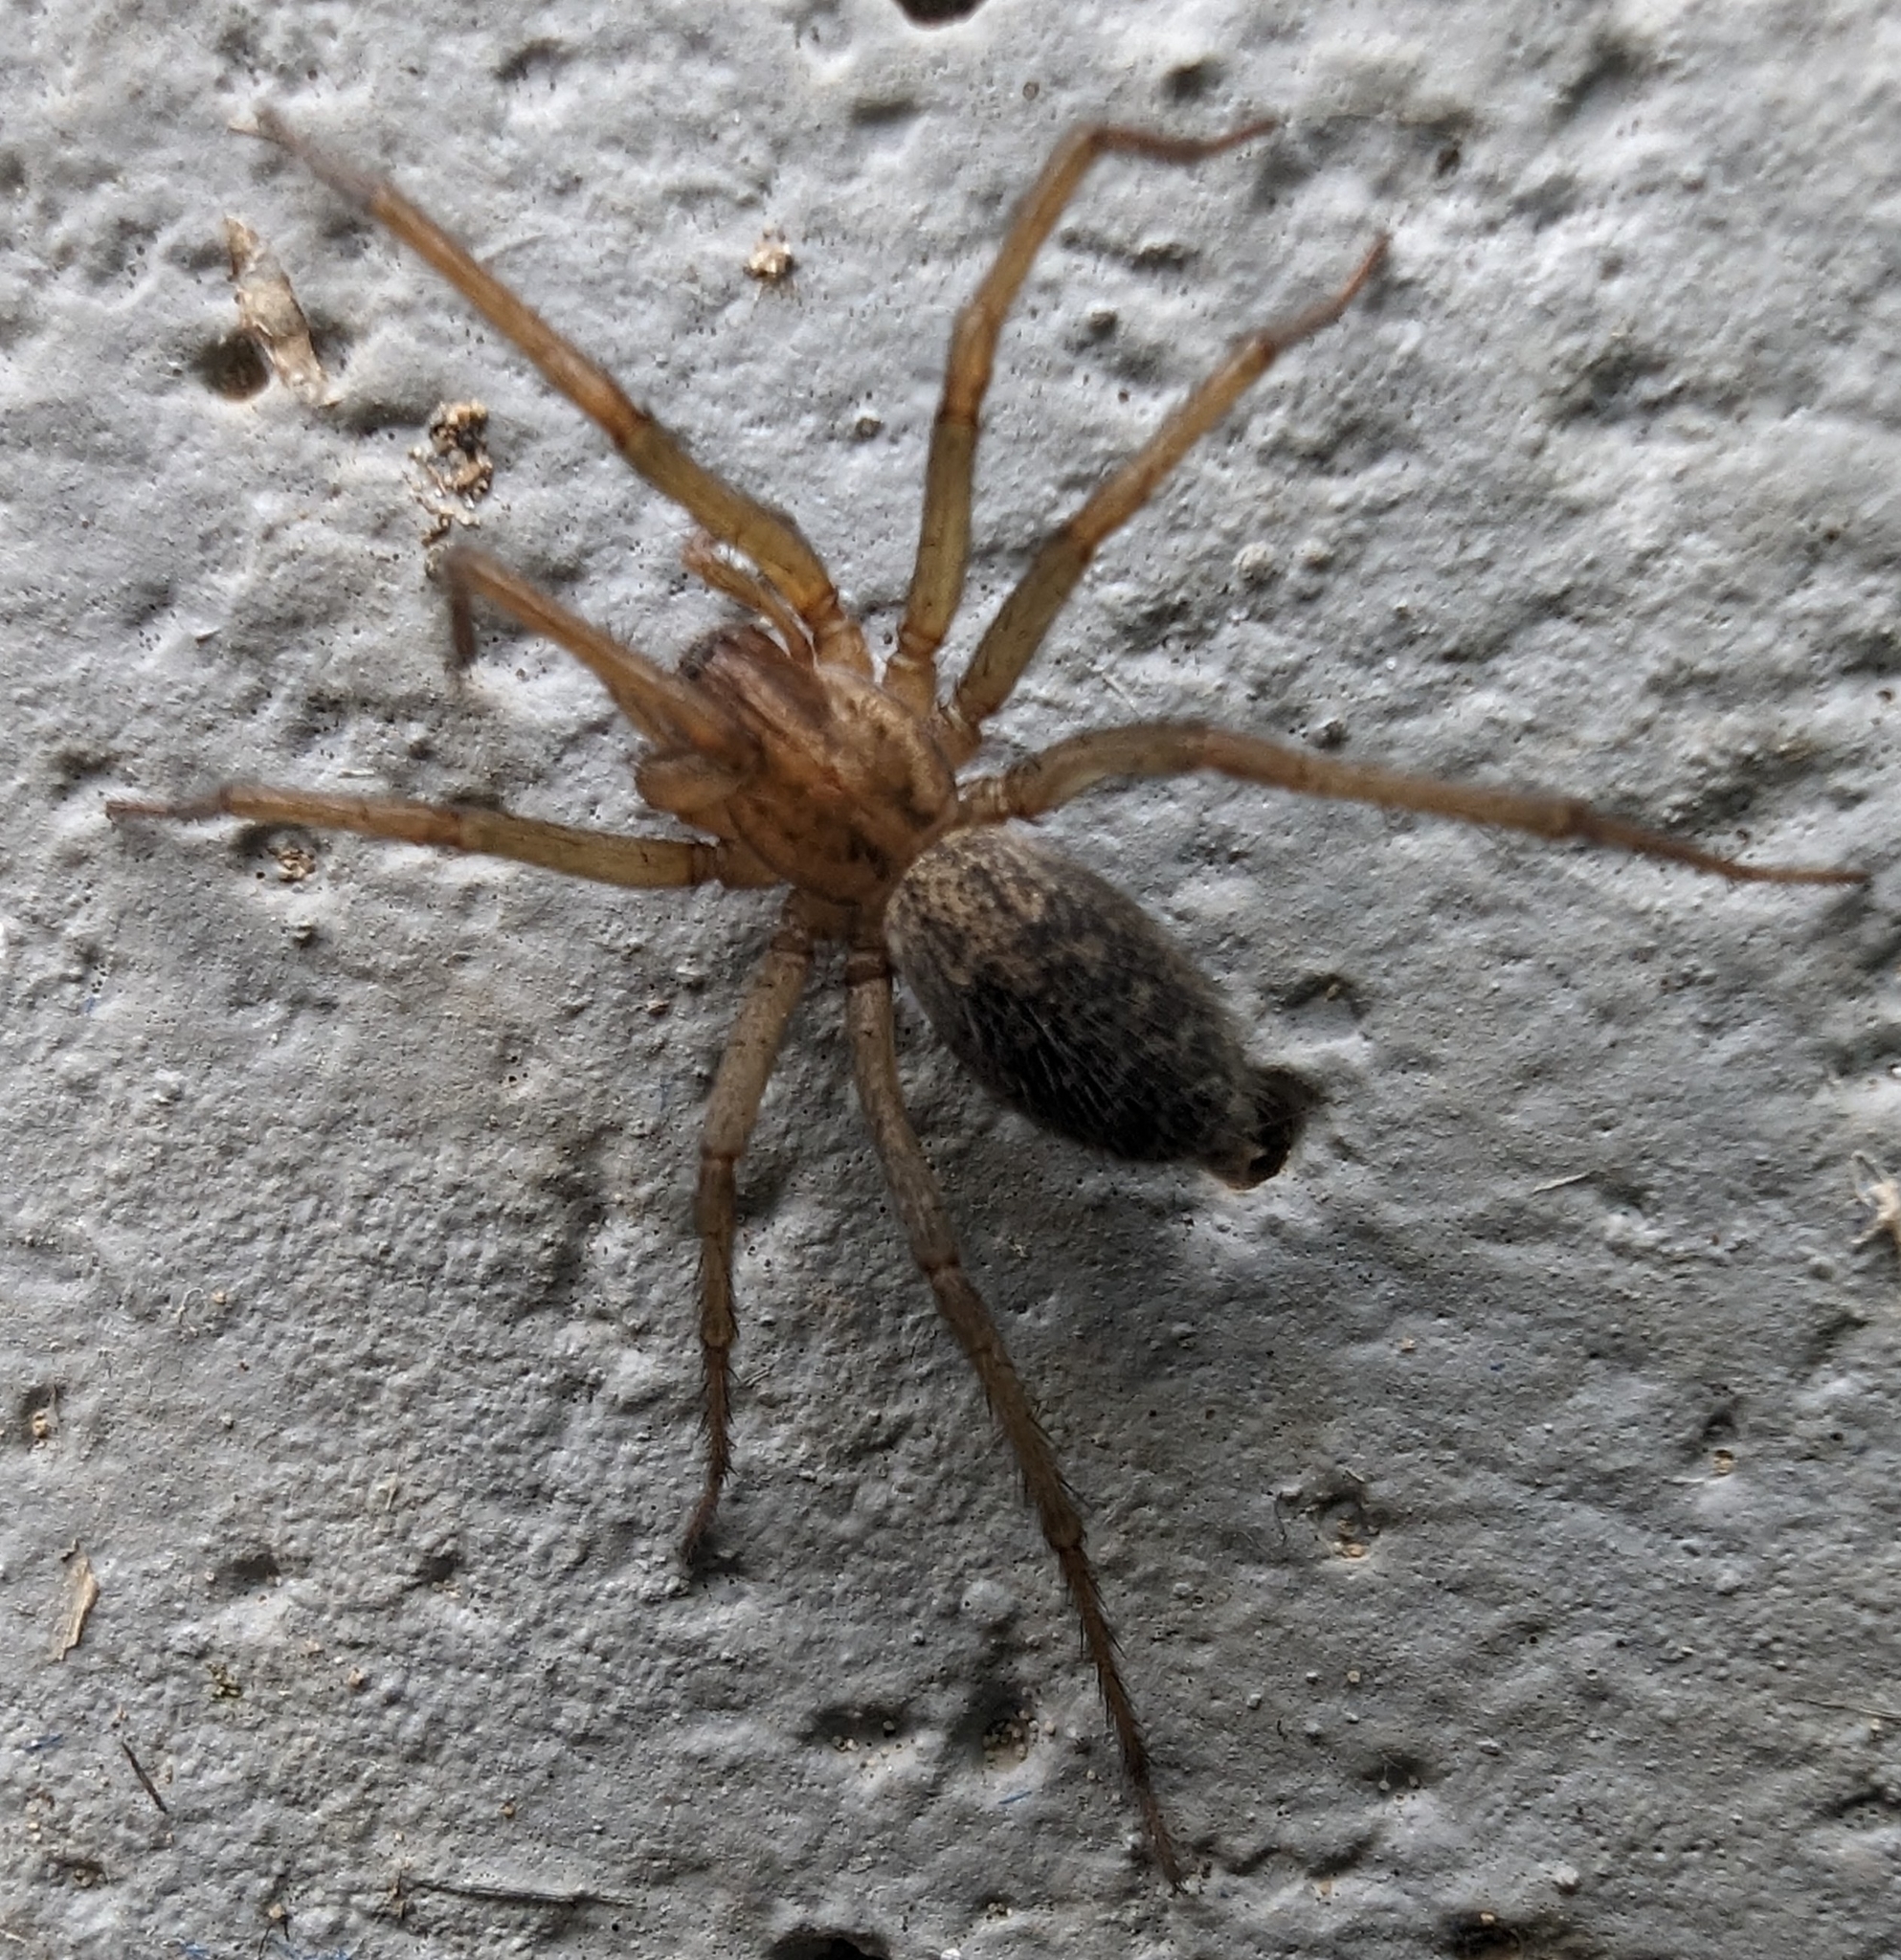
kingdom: Animalia
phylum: Arthropoda
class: Arachnida
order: Araneae
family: Agelenidae
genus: Eratigena
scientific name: Eratigena agrestis
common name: Hobo spider
